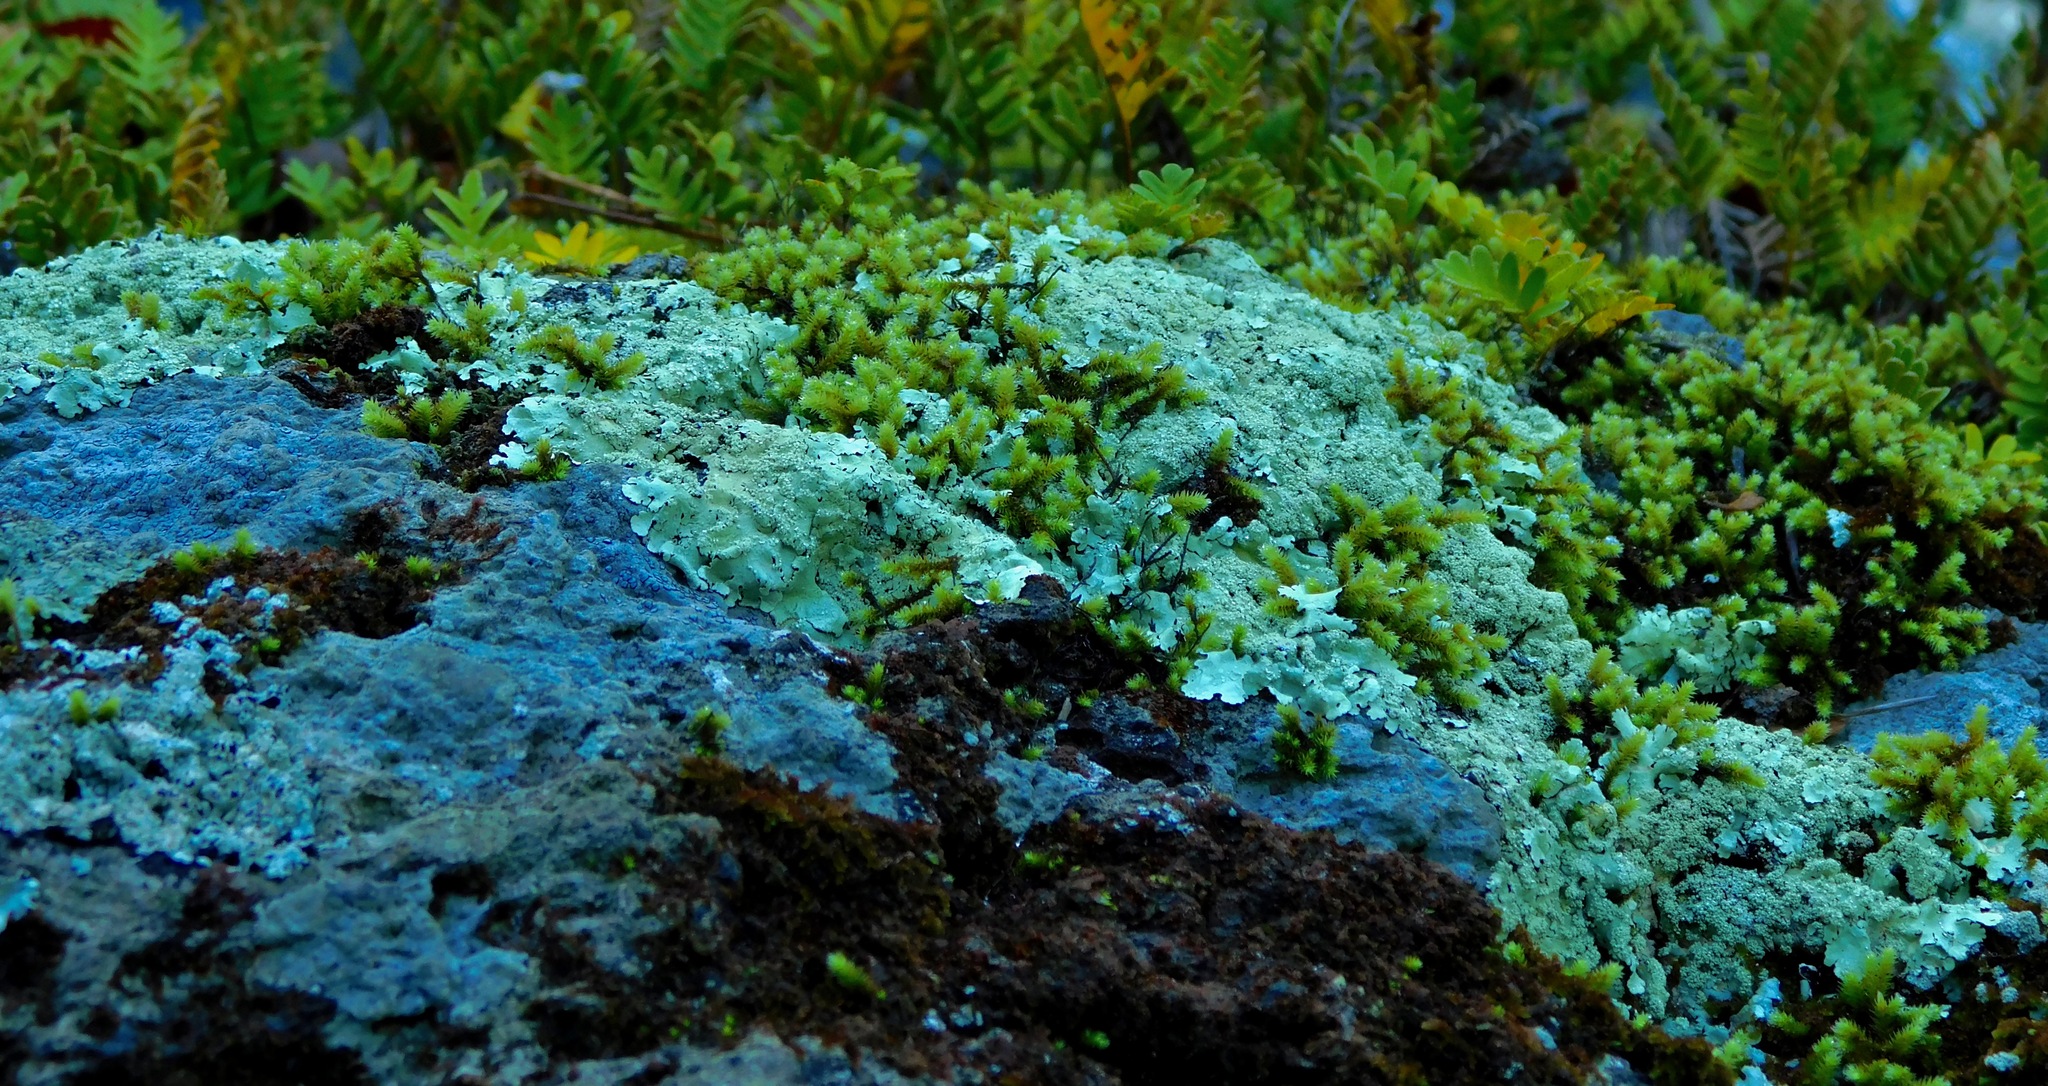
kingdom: Fungi
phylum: Ascomycota
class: Lecanoromycetes
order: Lecanorales
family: Parmeliaceae
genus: Flavoparmelia
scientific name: Flavoparmelia baltimorensis
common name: Rock greenshield
